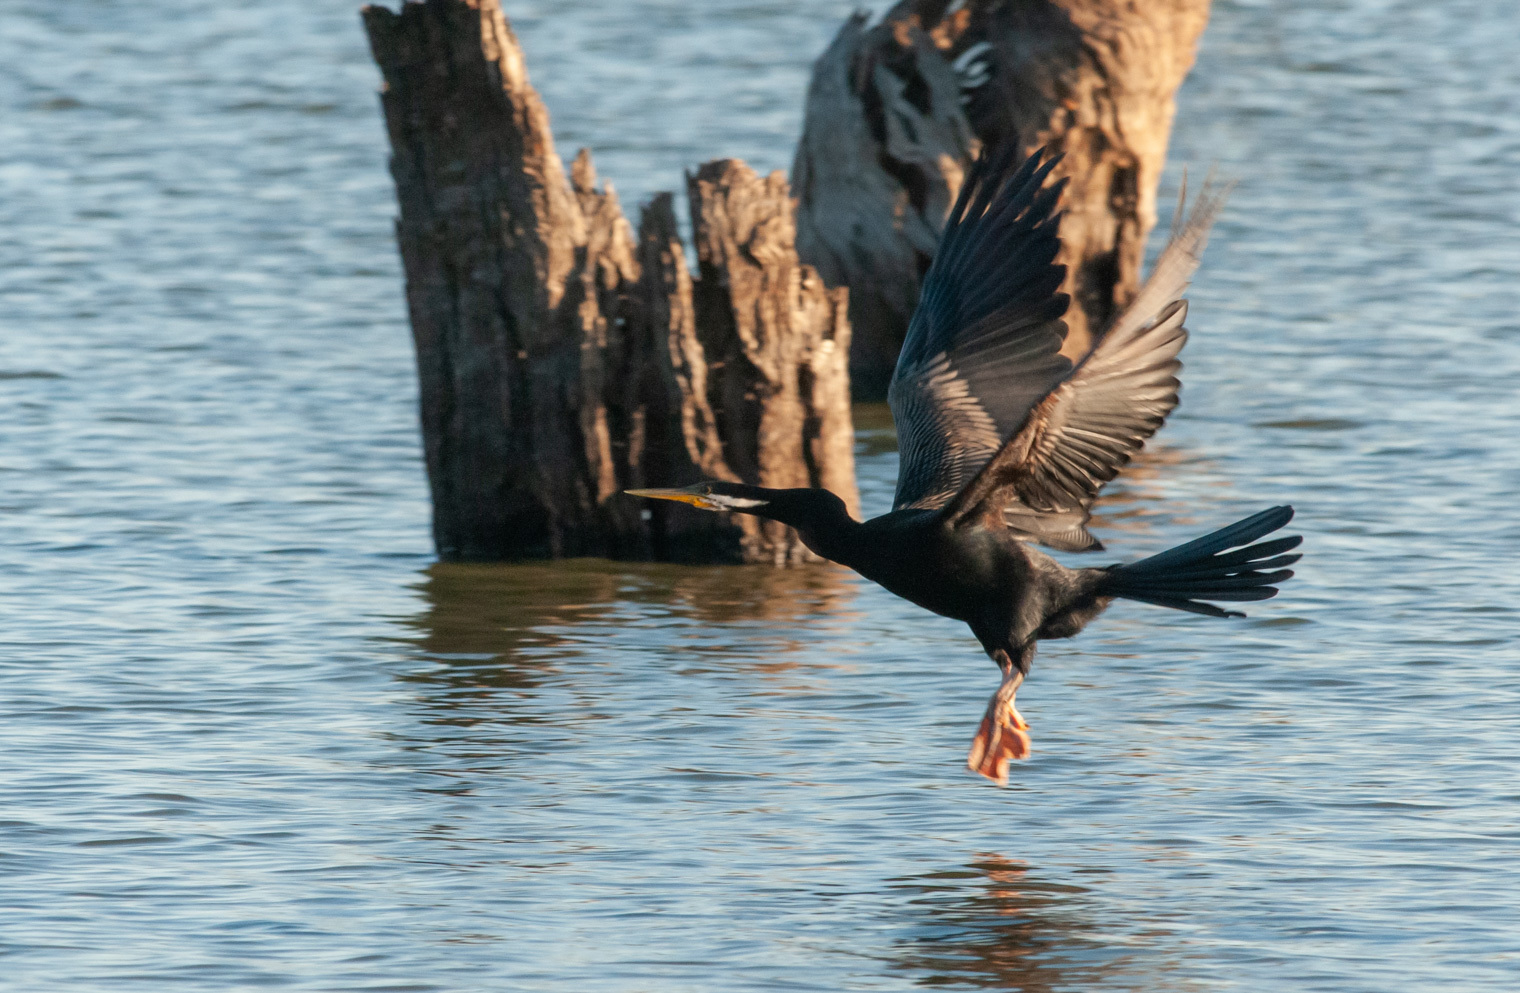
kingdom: Animalia
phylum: Chordata
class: Aves
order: Suliformes
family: Anhingidae
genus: Anhinga
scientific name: Anhinga novaehollandiae
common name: Australasian darter
